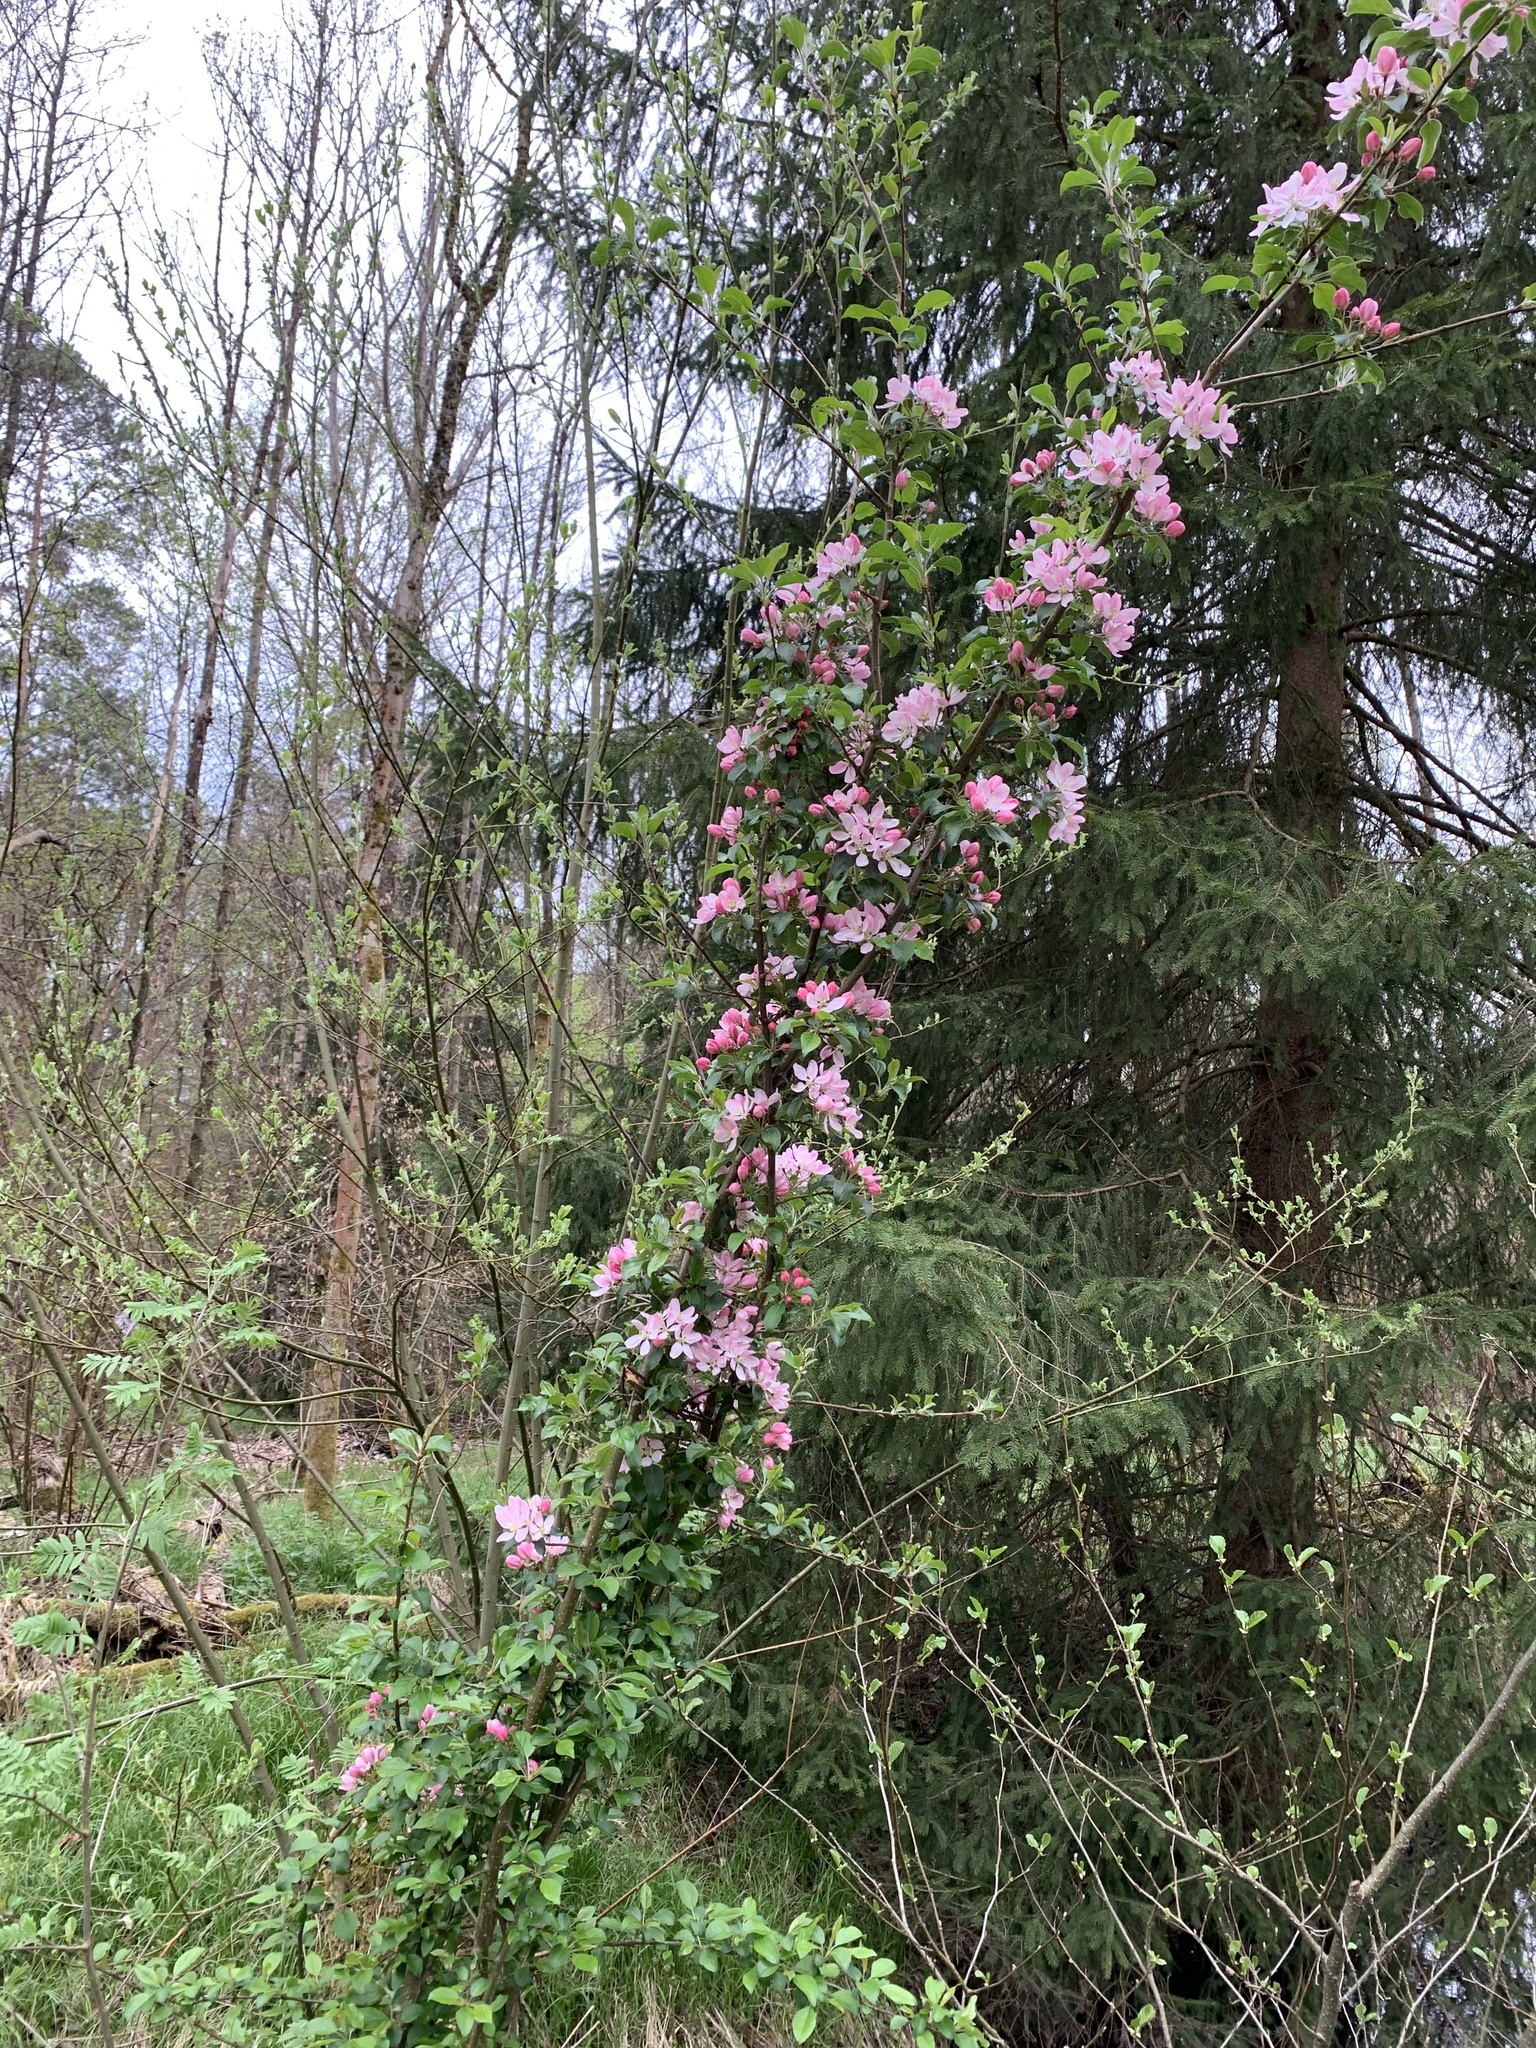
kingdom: Plantae
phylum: Tracheophyta
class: Magnoliopsida
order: Rosales
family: Rosaceae
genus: Malus
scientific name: Malus domestica
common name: Apple
